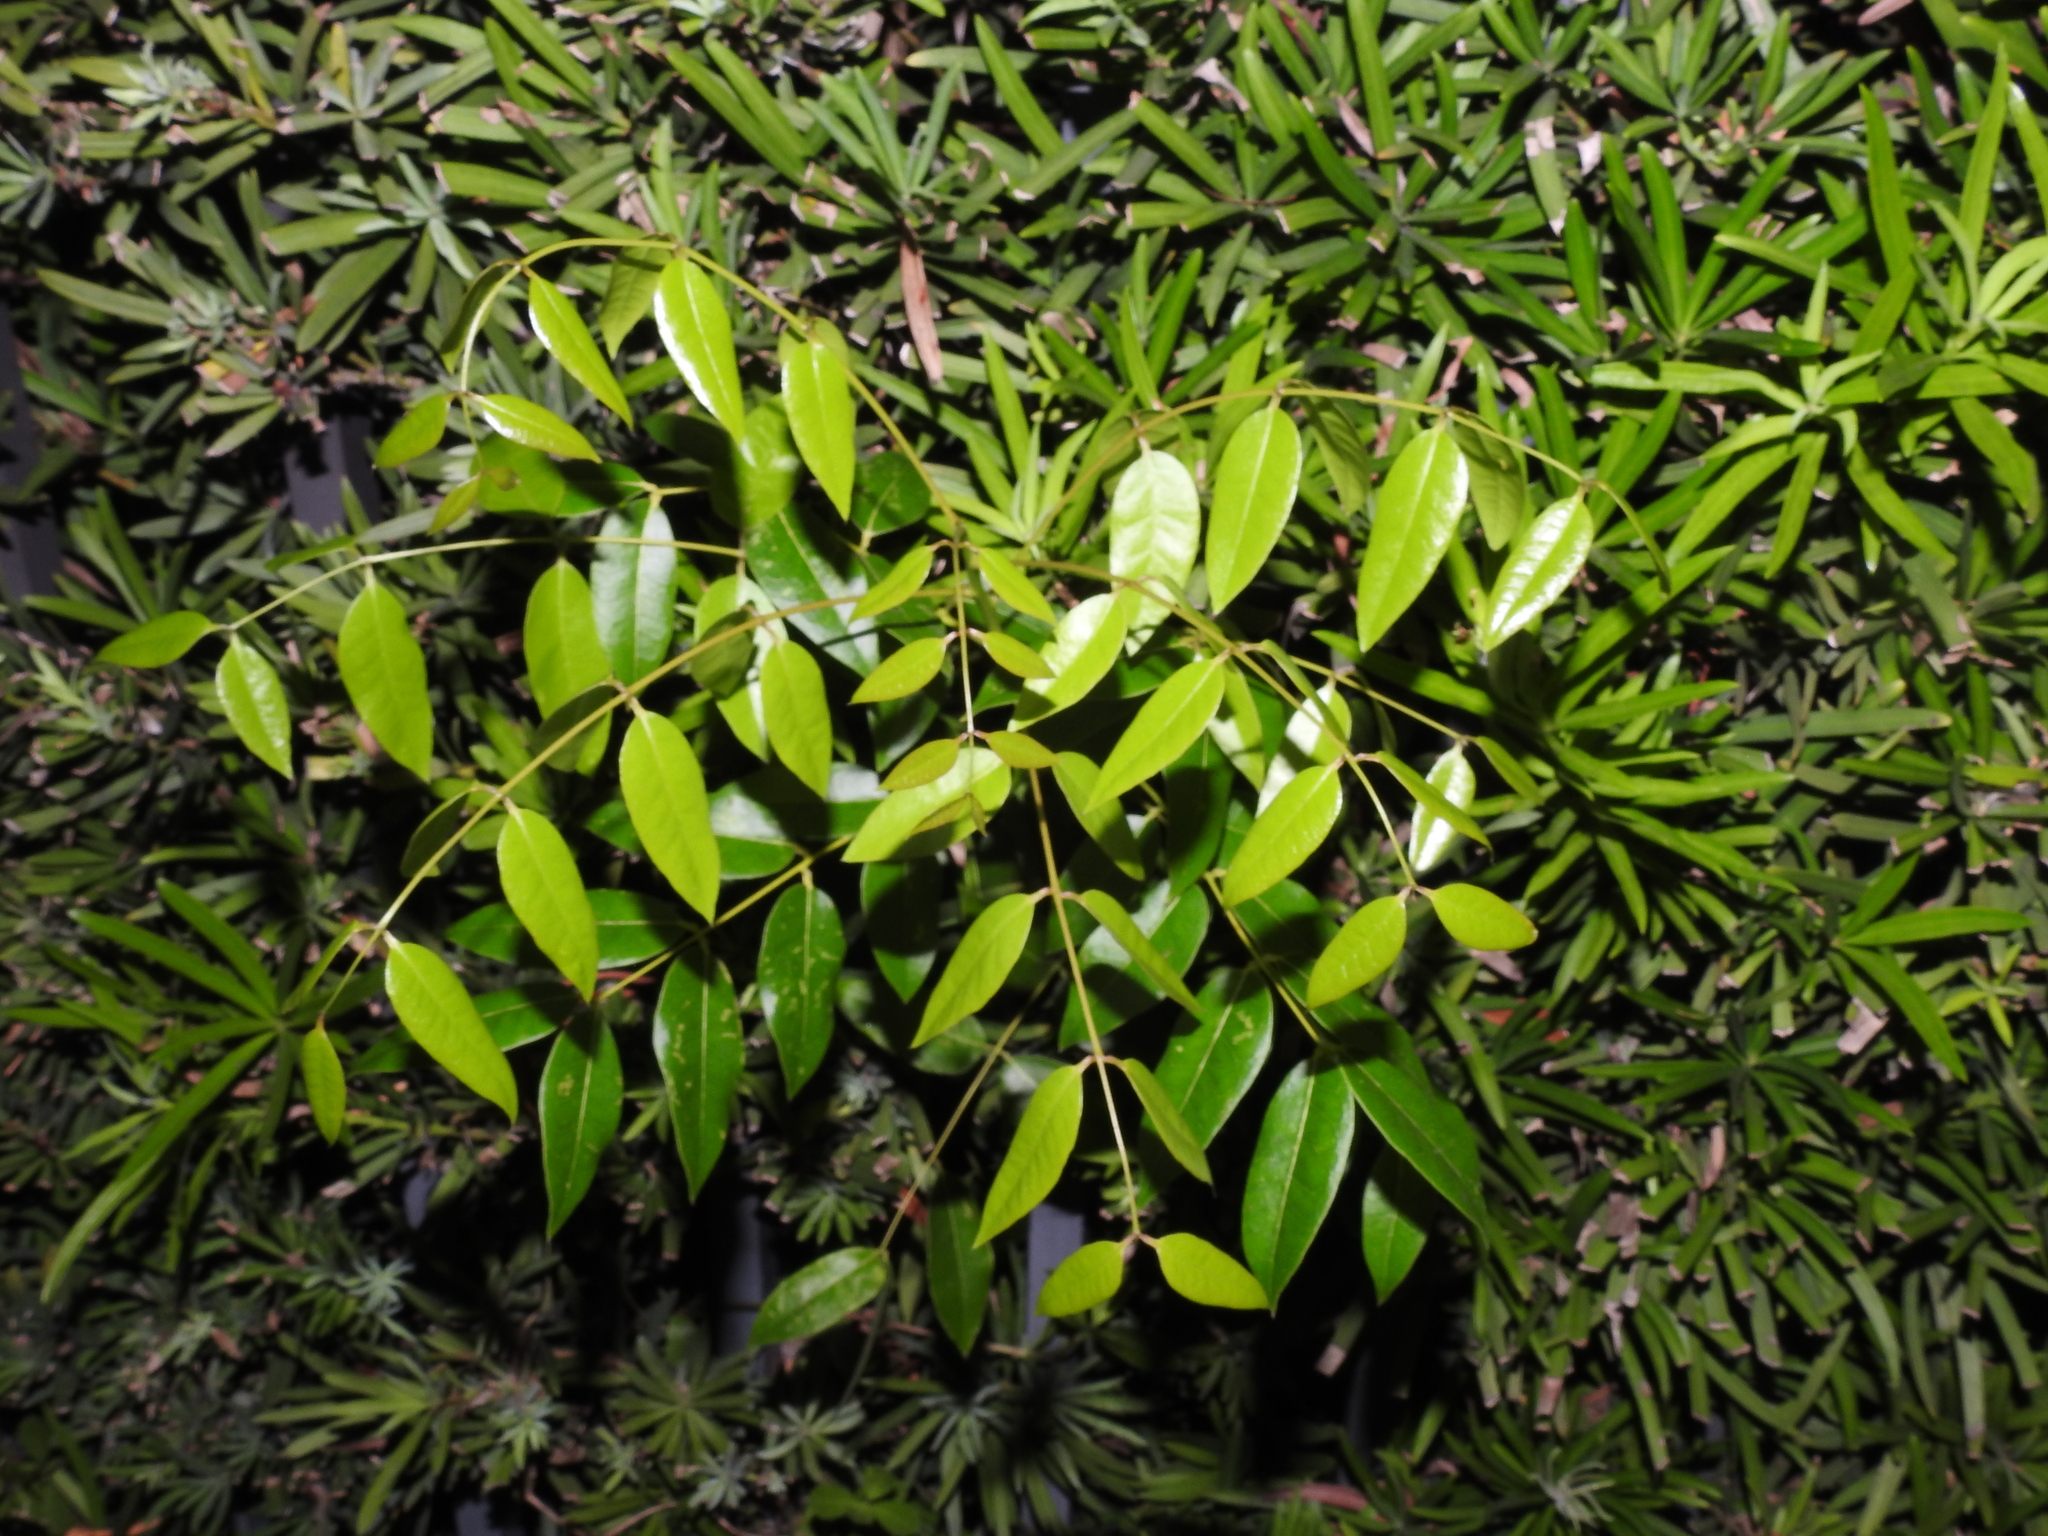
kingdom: Plantae
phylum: Tracheophyta
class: Magnoliopsida
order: Sapindales
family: Meliaceae
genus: Swietenia
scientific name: Swietenia mahagoni
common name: West indian mahogany
